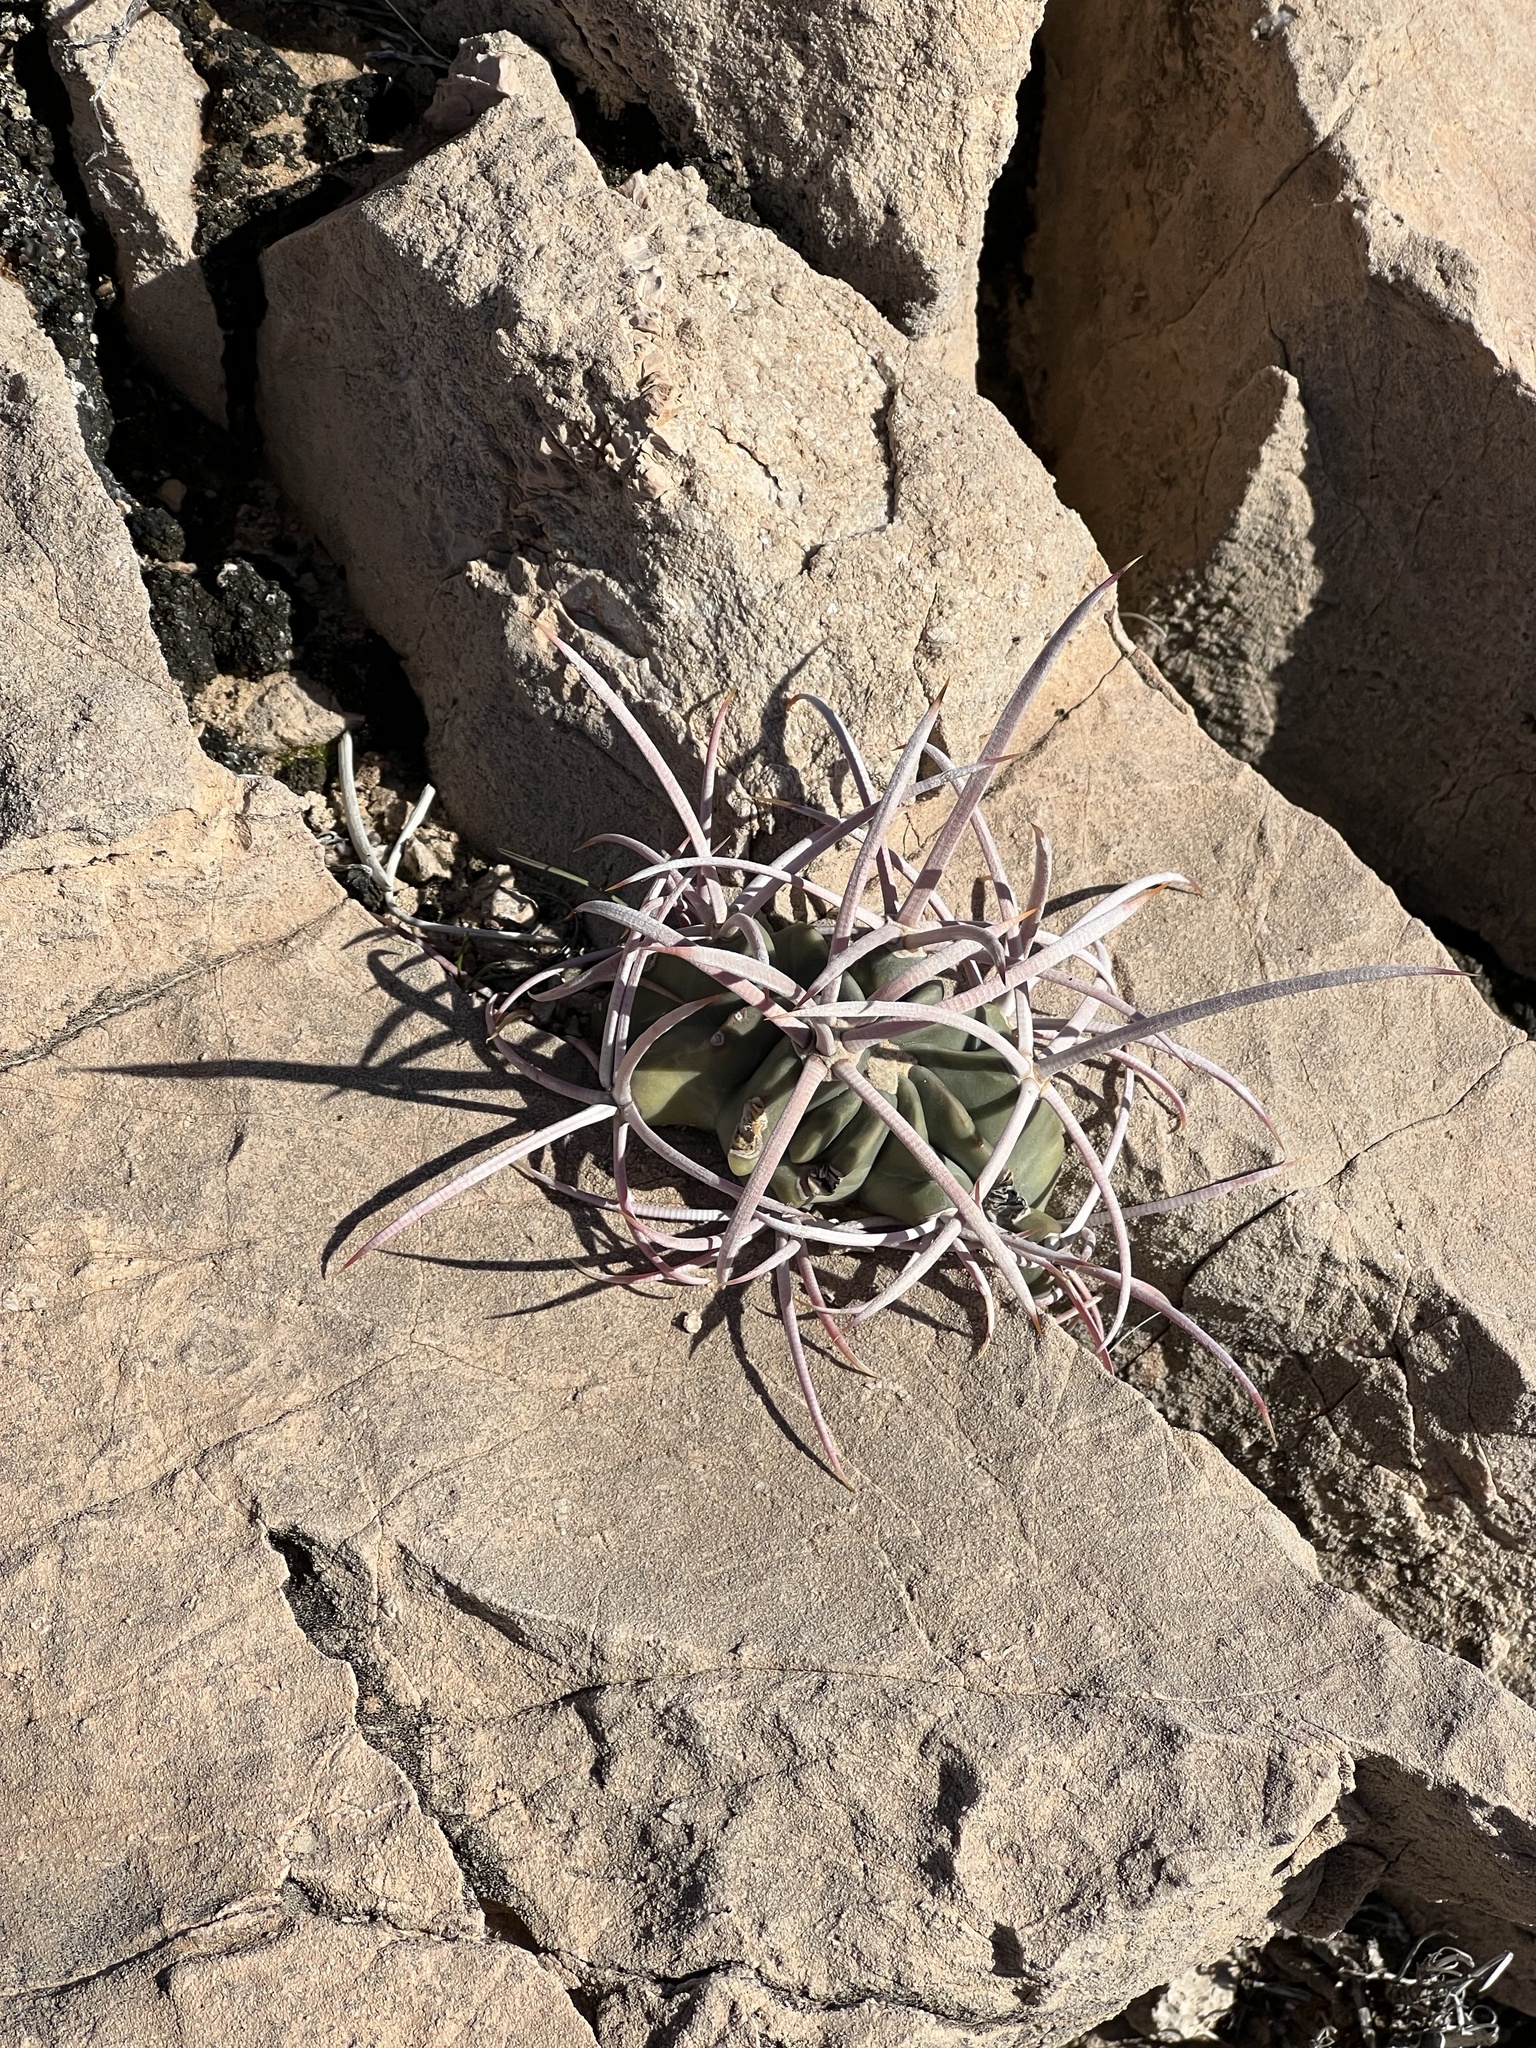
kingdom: Plantae
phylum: Tracheophyta
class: Magnoliopsida
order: Caryophyllales
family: Cactaceae
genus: Echinocactus
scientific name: Echinocactus polycephalus
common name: Cottontop cactus
